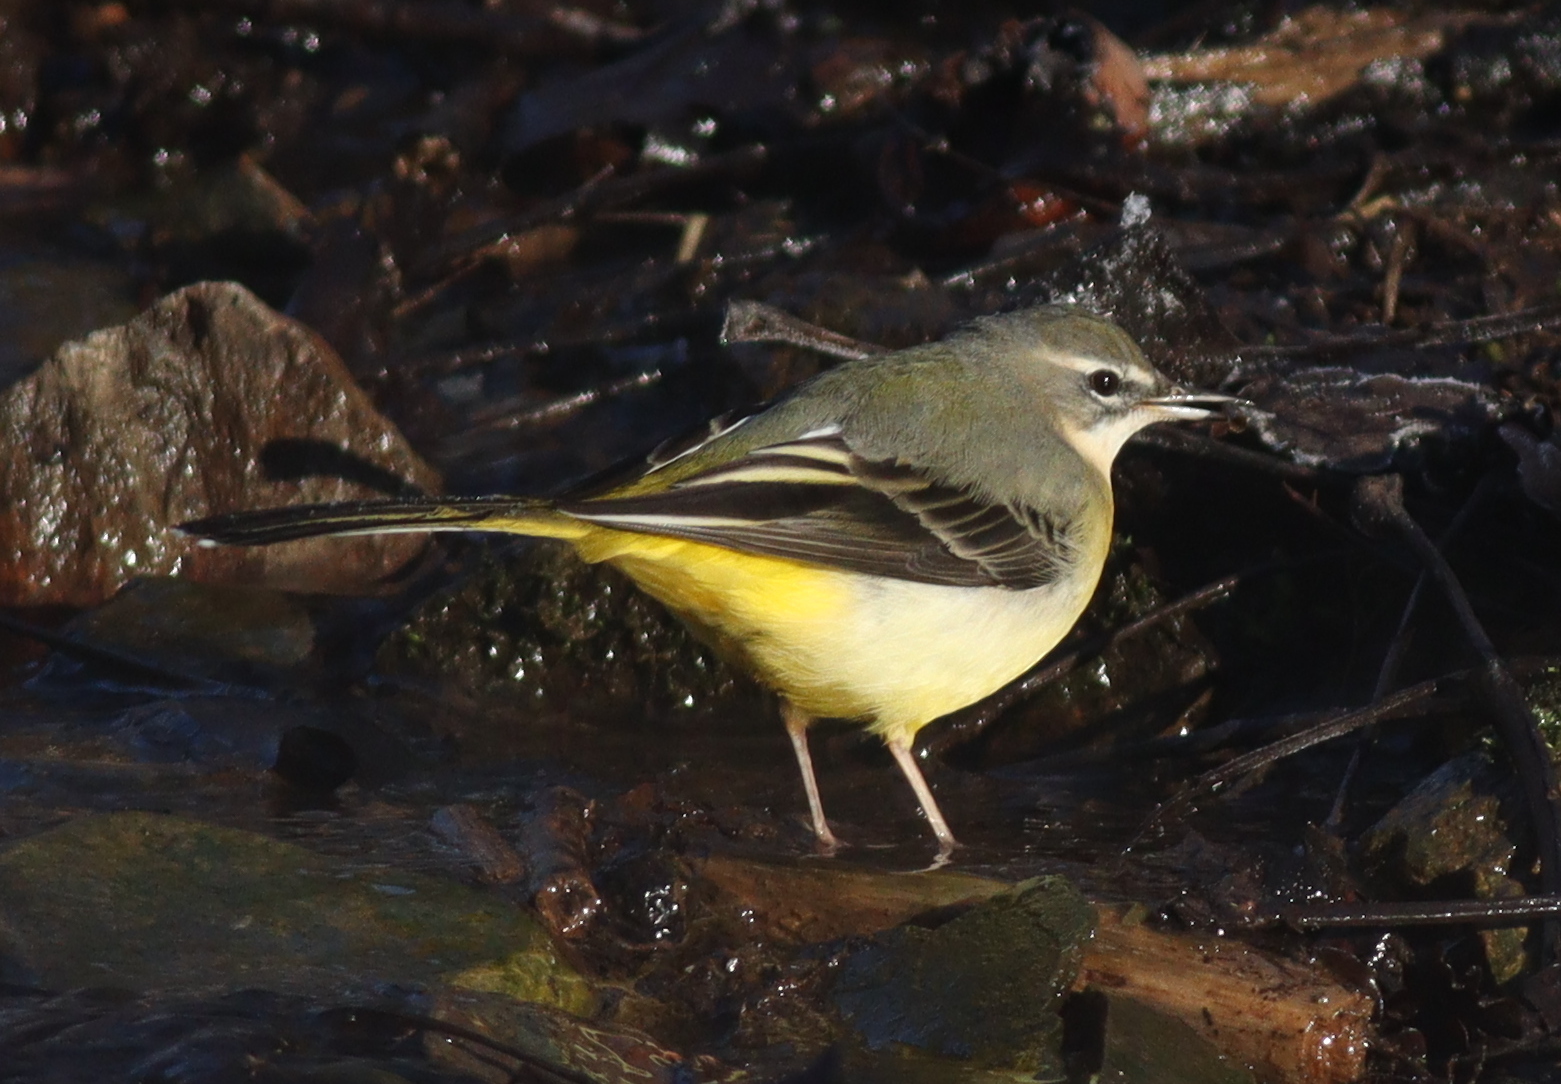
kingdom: Animalia
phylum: Chordata
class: Aves
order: Passeriformes
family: Motacillidae
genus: Motacilla
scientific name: Motacilla cinerea
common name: Grey wagtail
